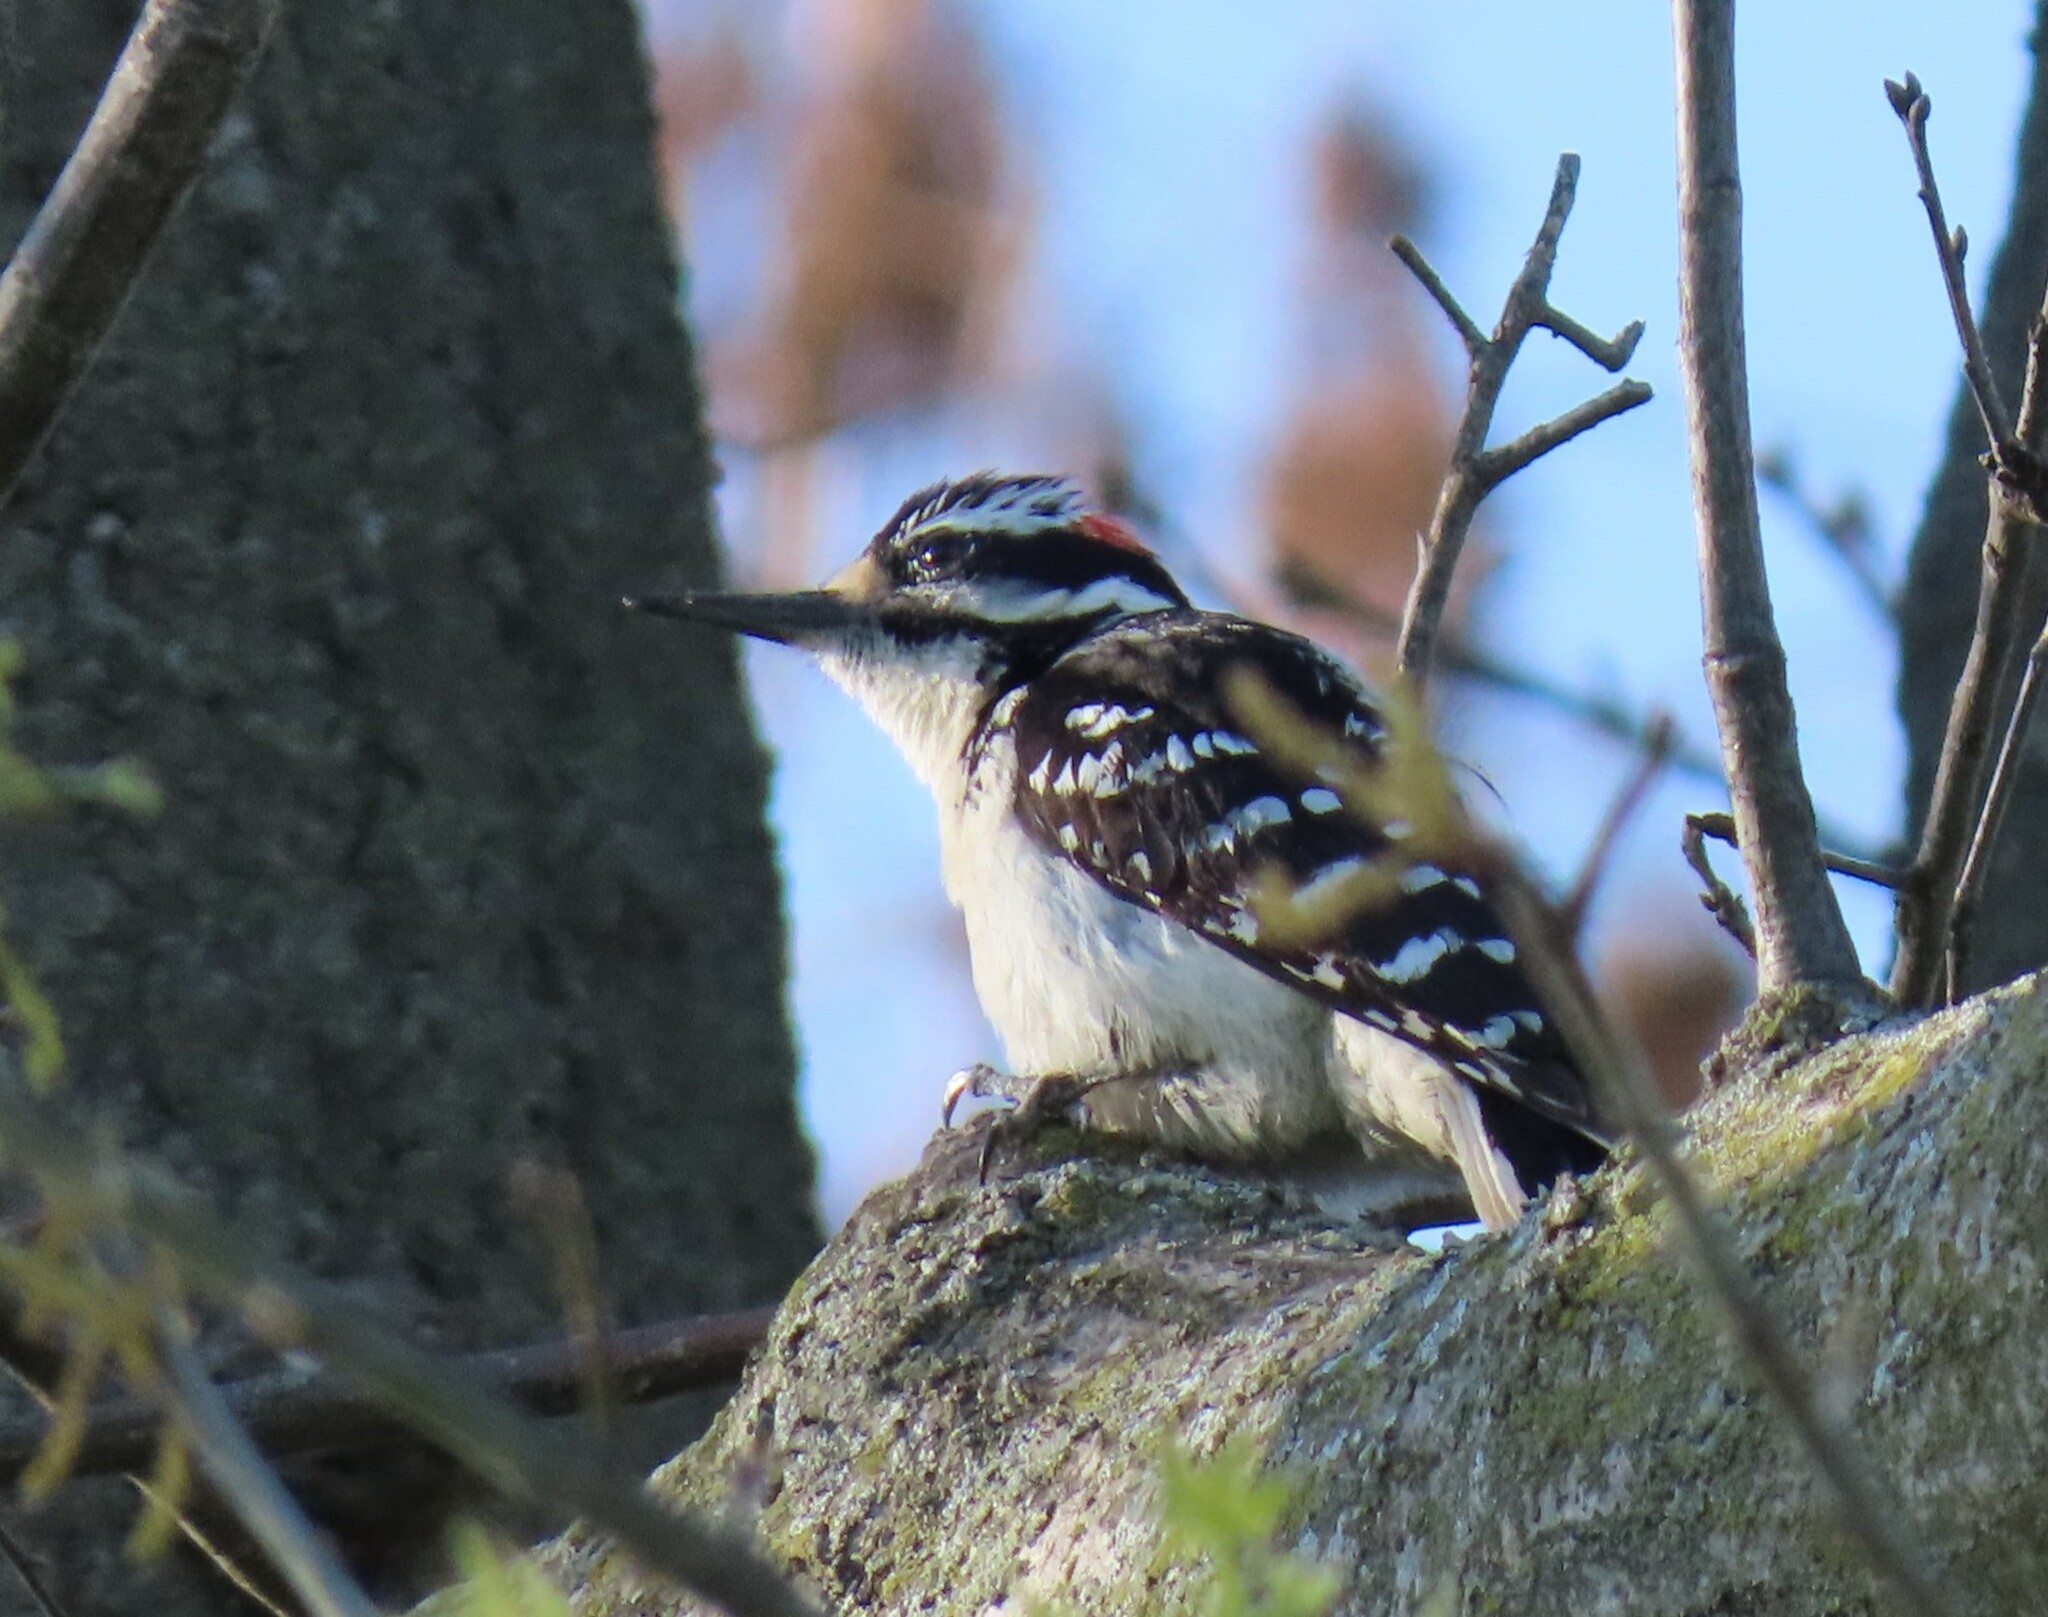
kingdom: Animalia
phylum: Chordata
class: Aves
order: Piciformes
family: Picidae
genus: Leuconotopicus
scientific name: Leuconotopicus villosus
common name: Hairy woodpecker
